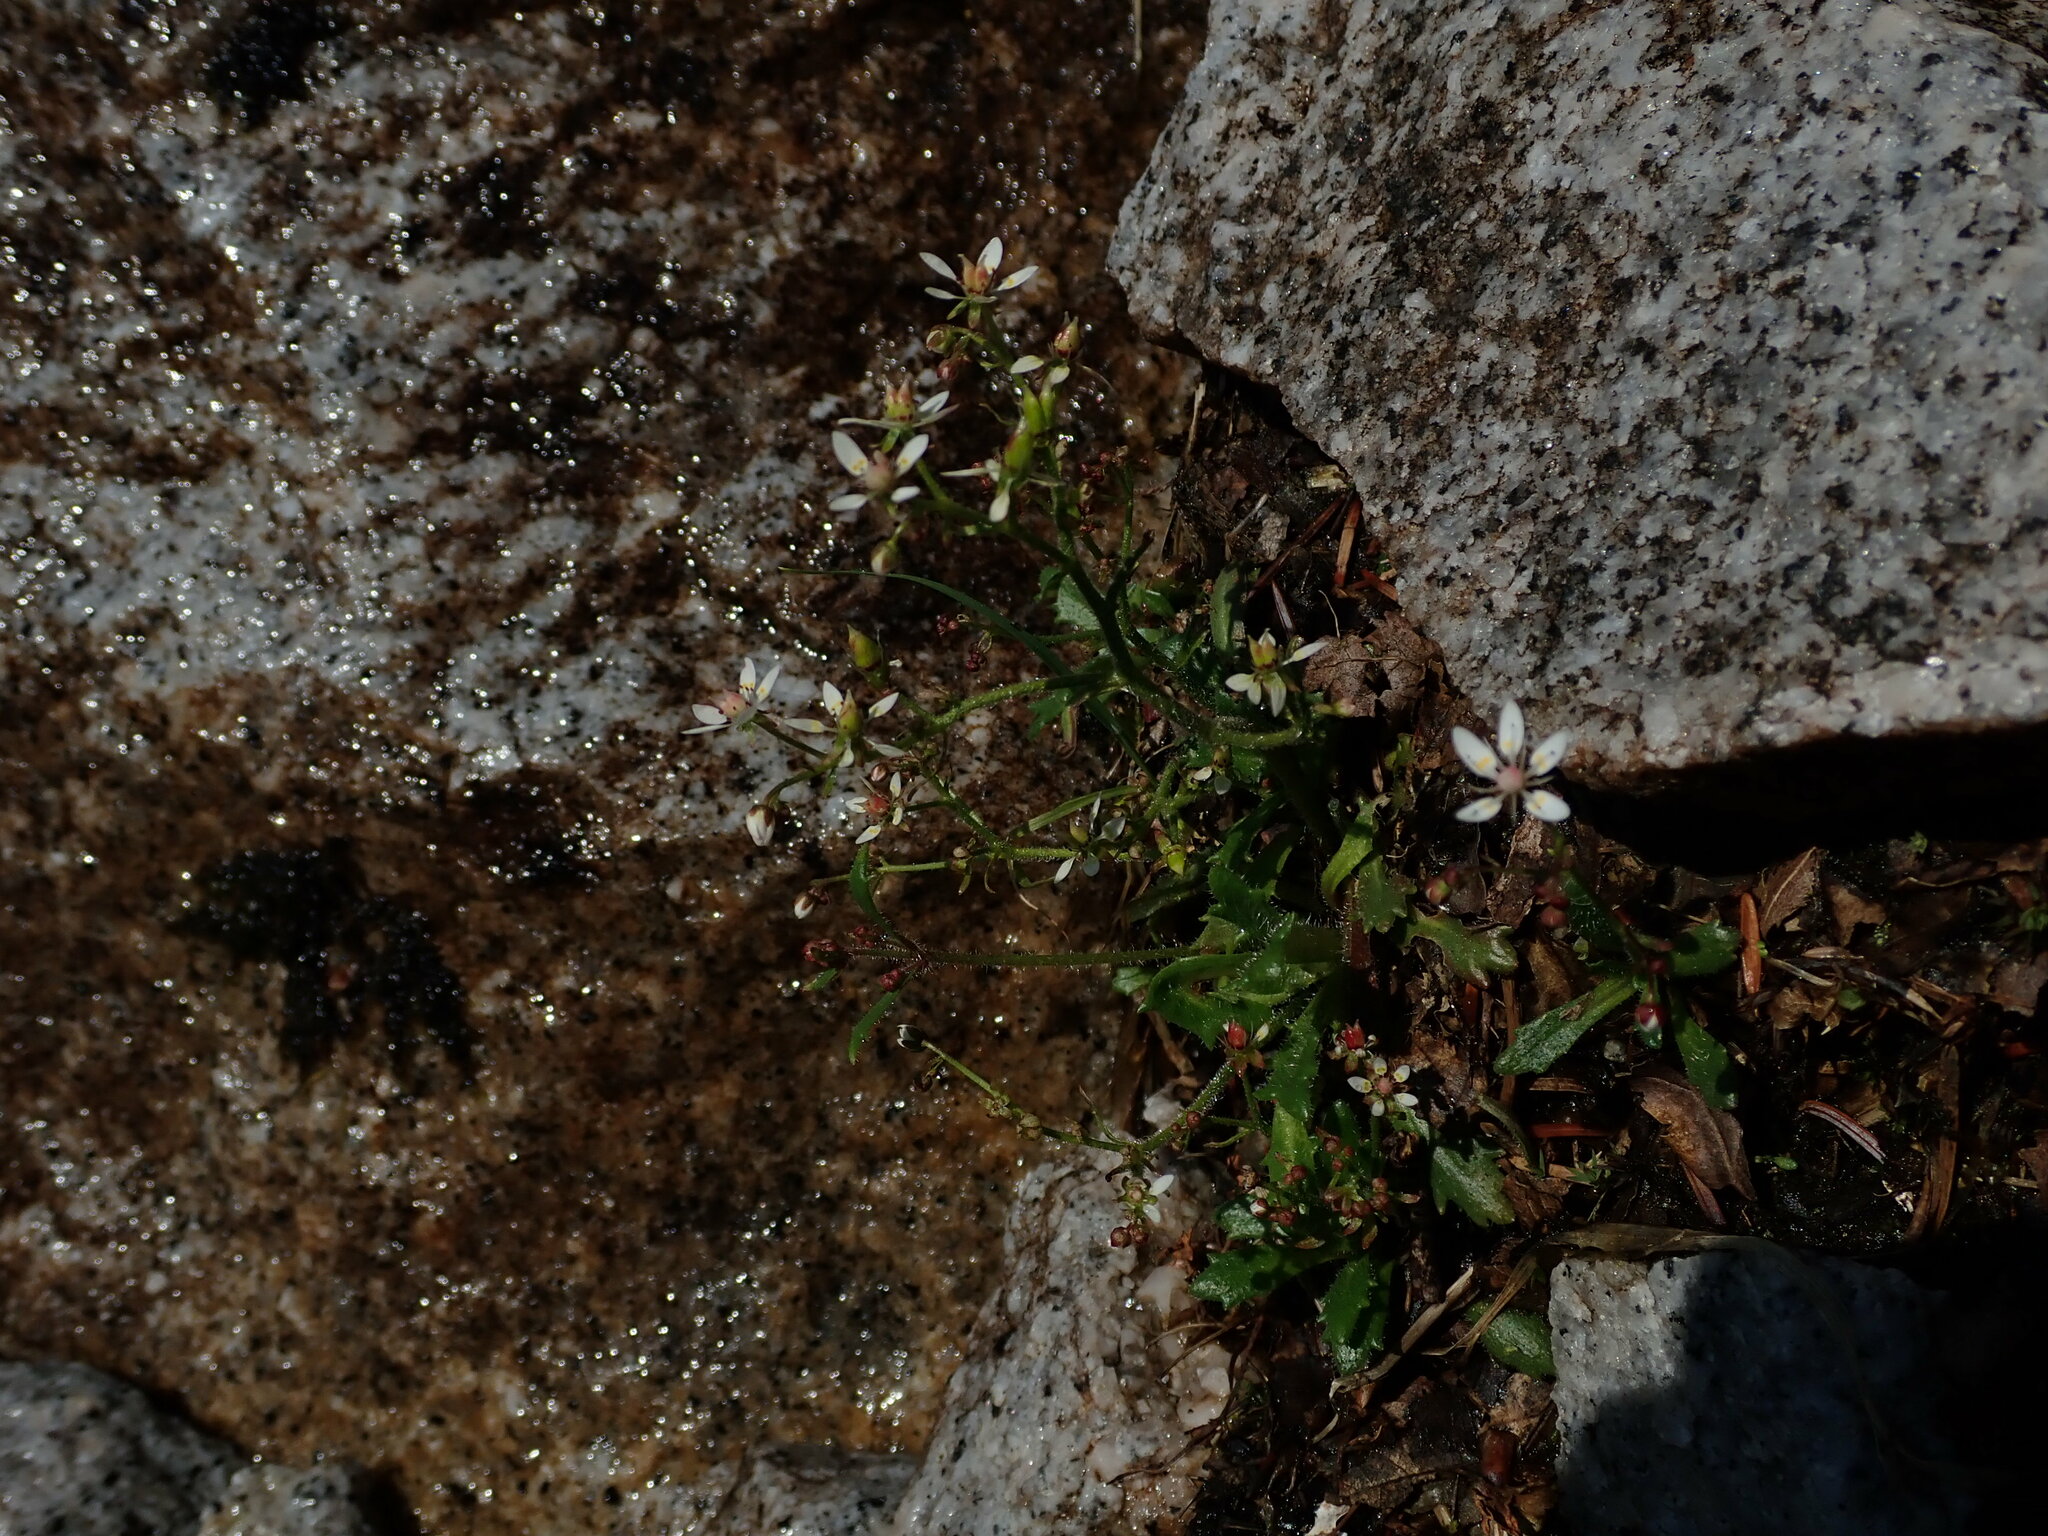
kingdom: Plantae
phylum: Tracheophyta
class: Magnoliopsida
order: Saxifragales
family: Saxifragaceae
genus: Micranthes
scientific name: Micranthes ferruginea
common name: Rusty saxifrage
